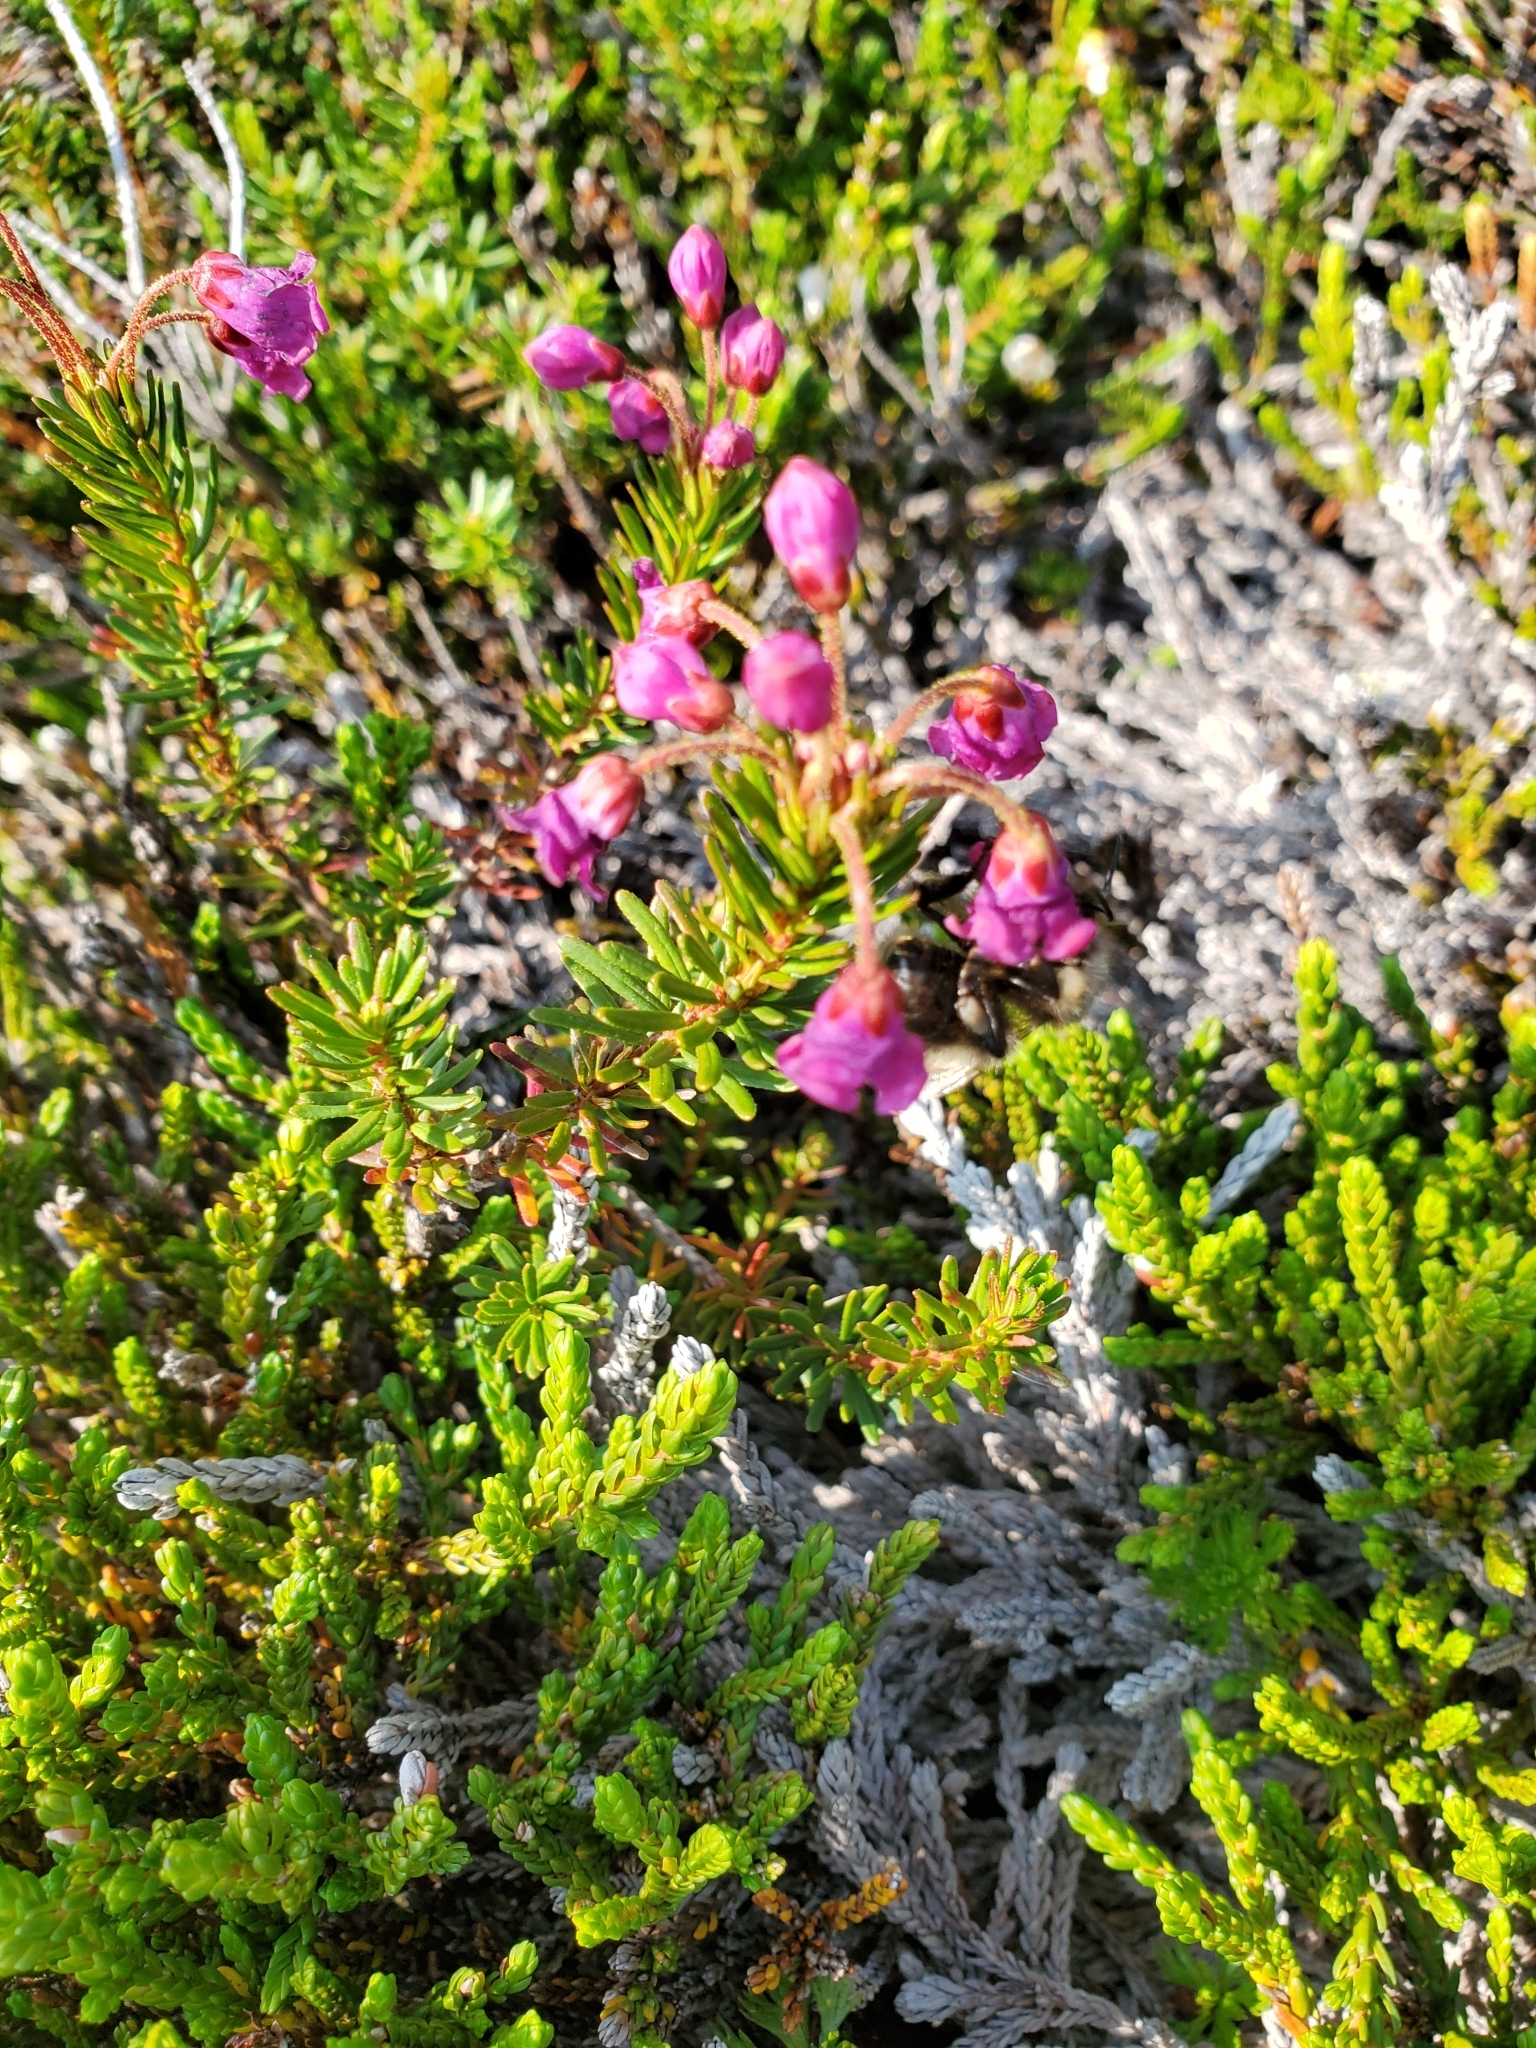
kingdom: Plantae
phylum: Tracheophyta
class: Magnoliopsida
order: Ericales
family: Ericaceae
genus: Phyllodoce
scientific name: Phyllodoce empetriformis
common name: Pink mountain heather
